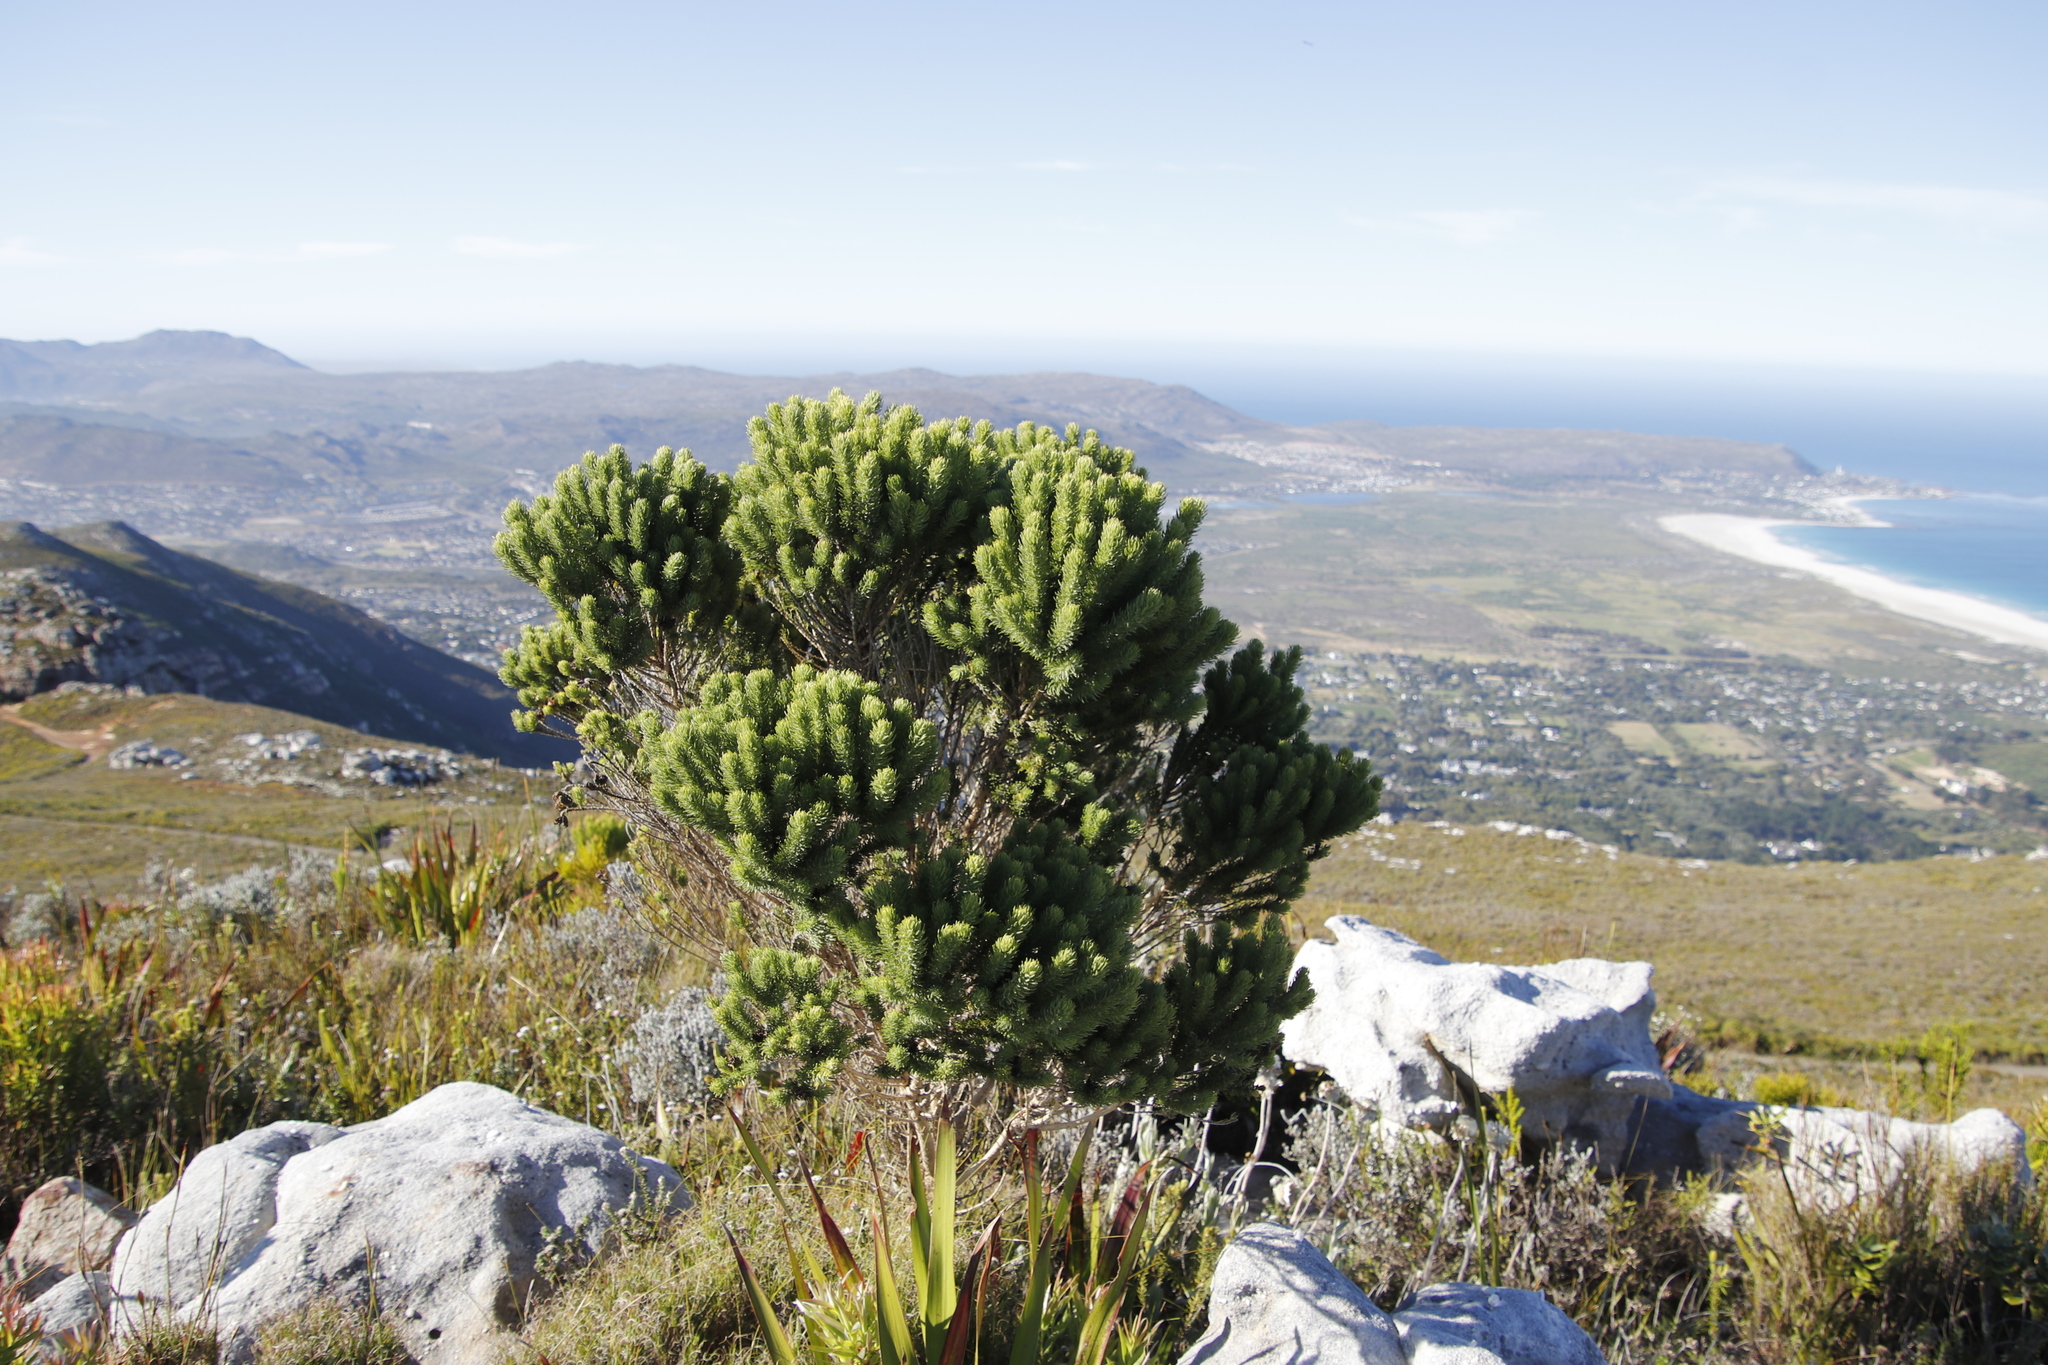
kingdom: Plantae
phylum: Tracheophyta
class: Magnoliopsida
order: Fabales
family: Fabaceae
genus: Aspalathus
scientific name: Aspalathus capitata
